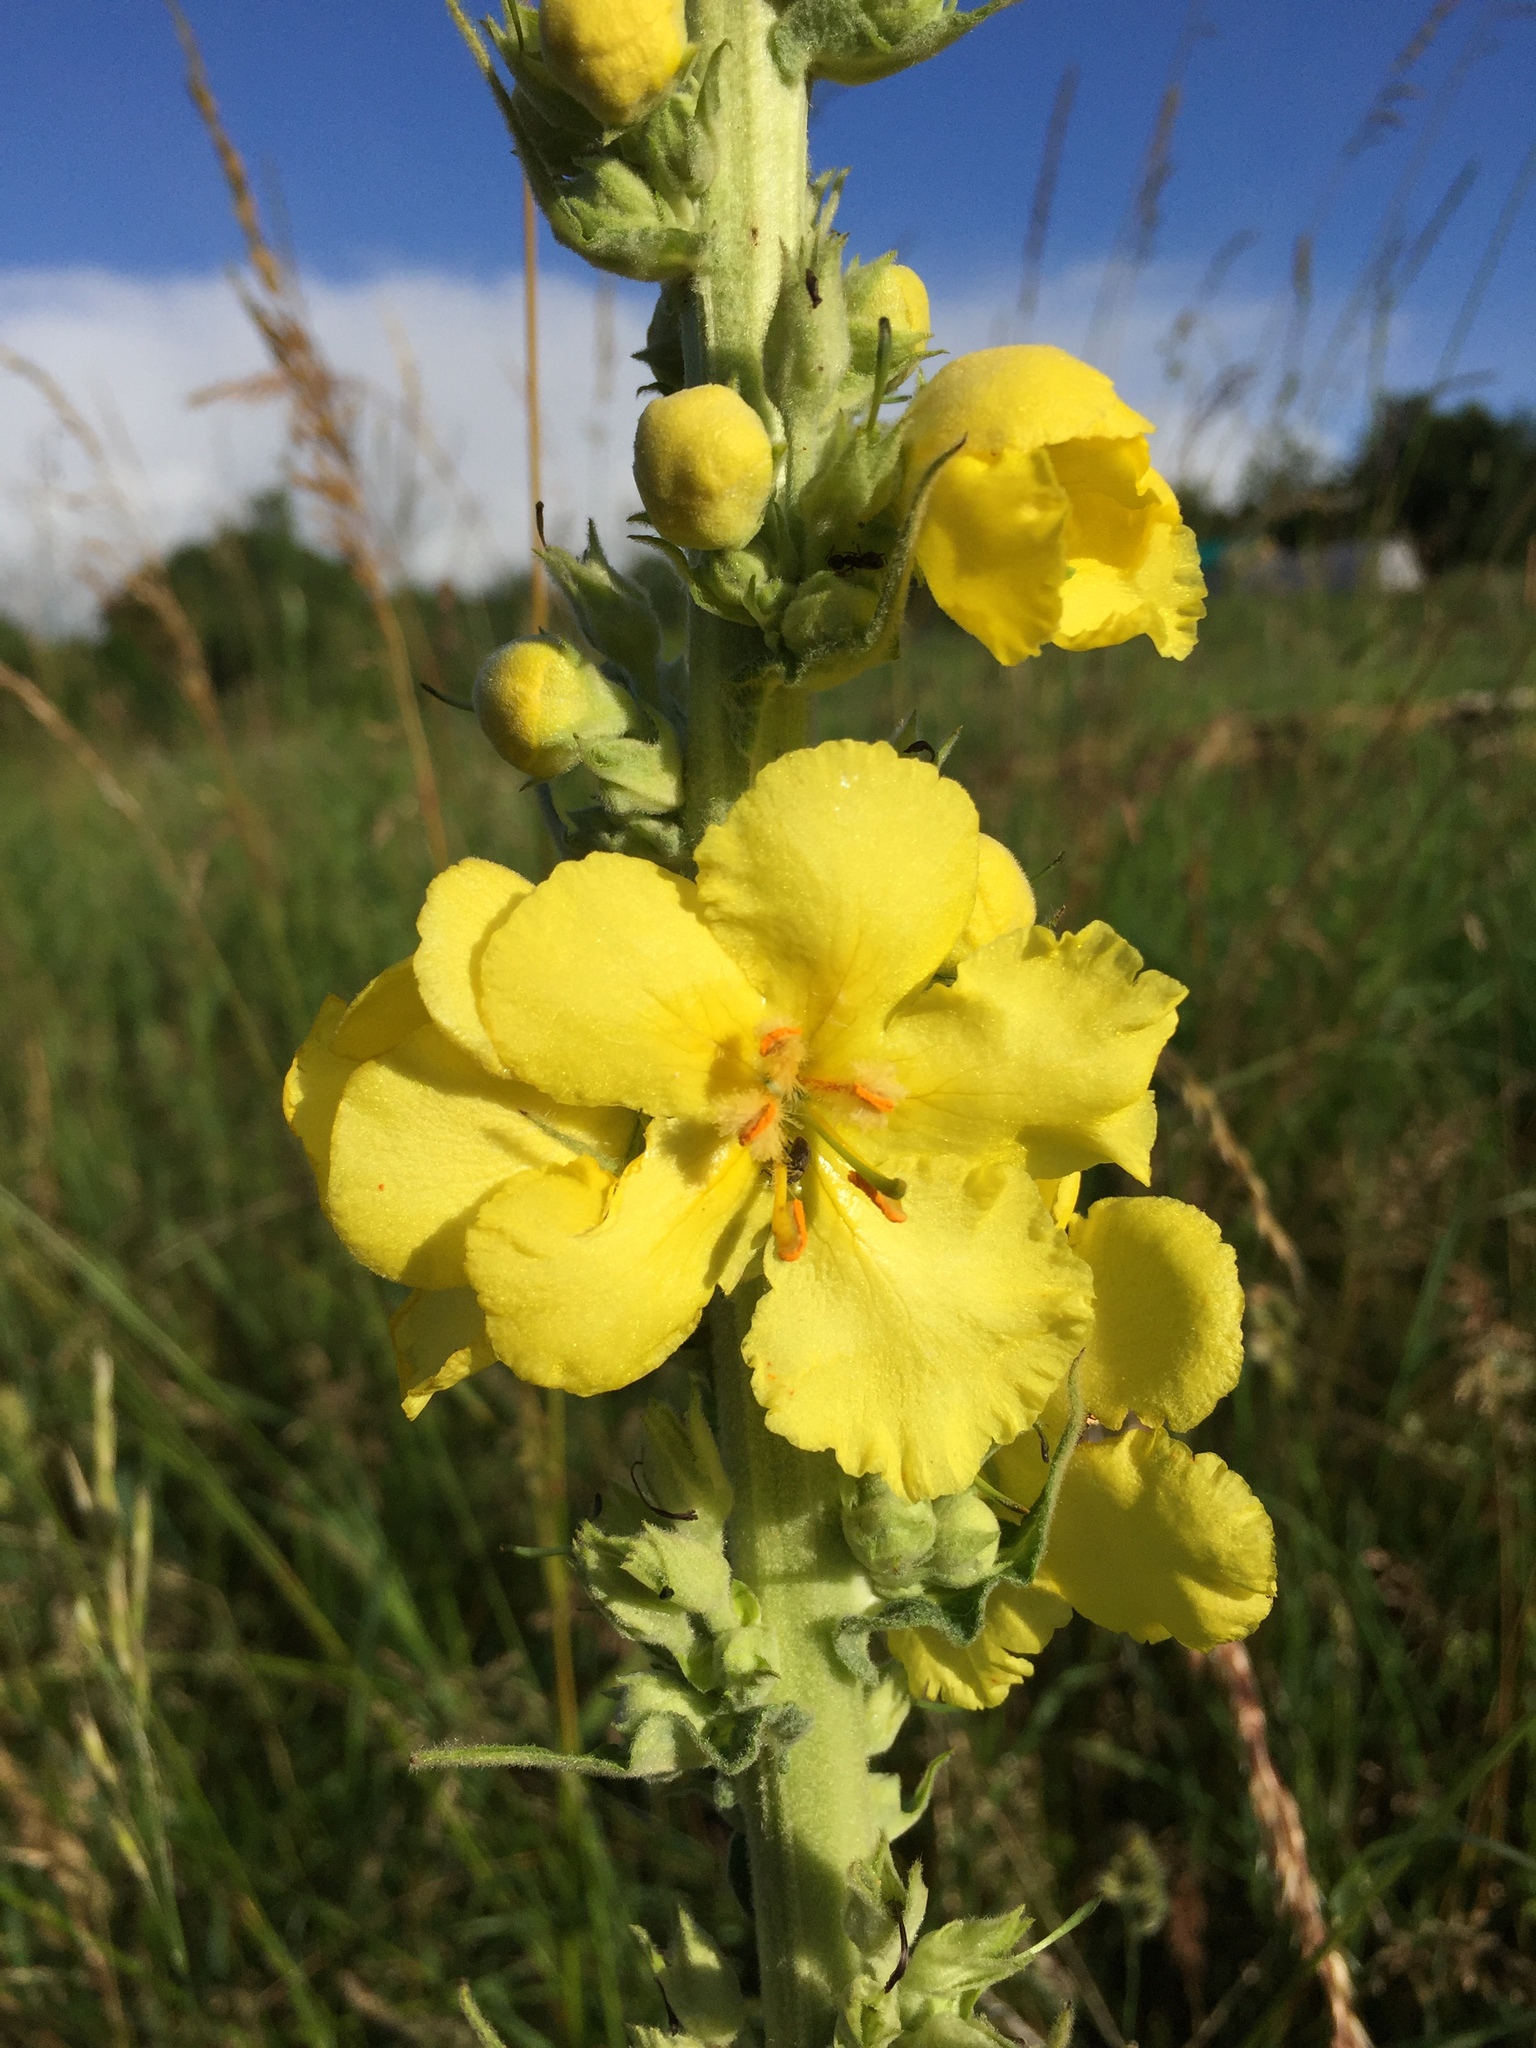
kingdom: Plantae
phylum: Tracheophyta
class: Magnoliopsida
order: Lamiales
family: Scrophulariaceae
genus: Verbascum
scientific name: Verbascum phlomoides
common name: Orange mullein
